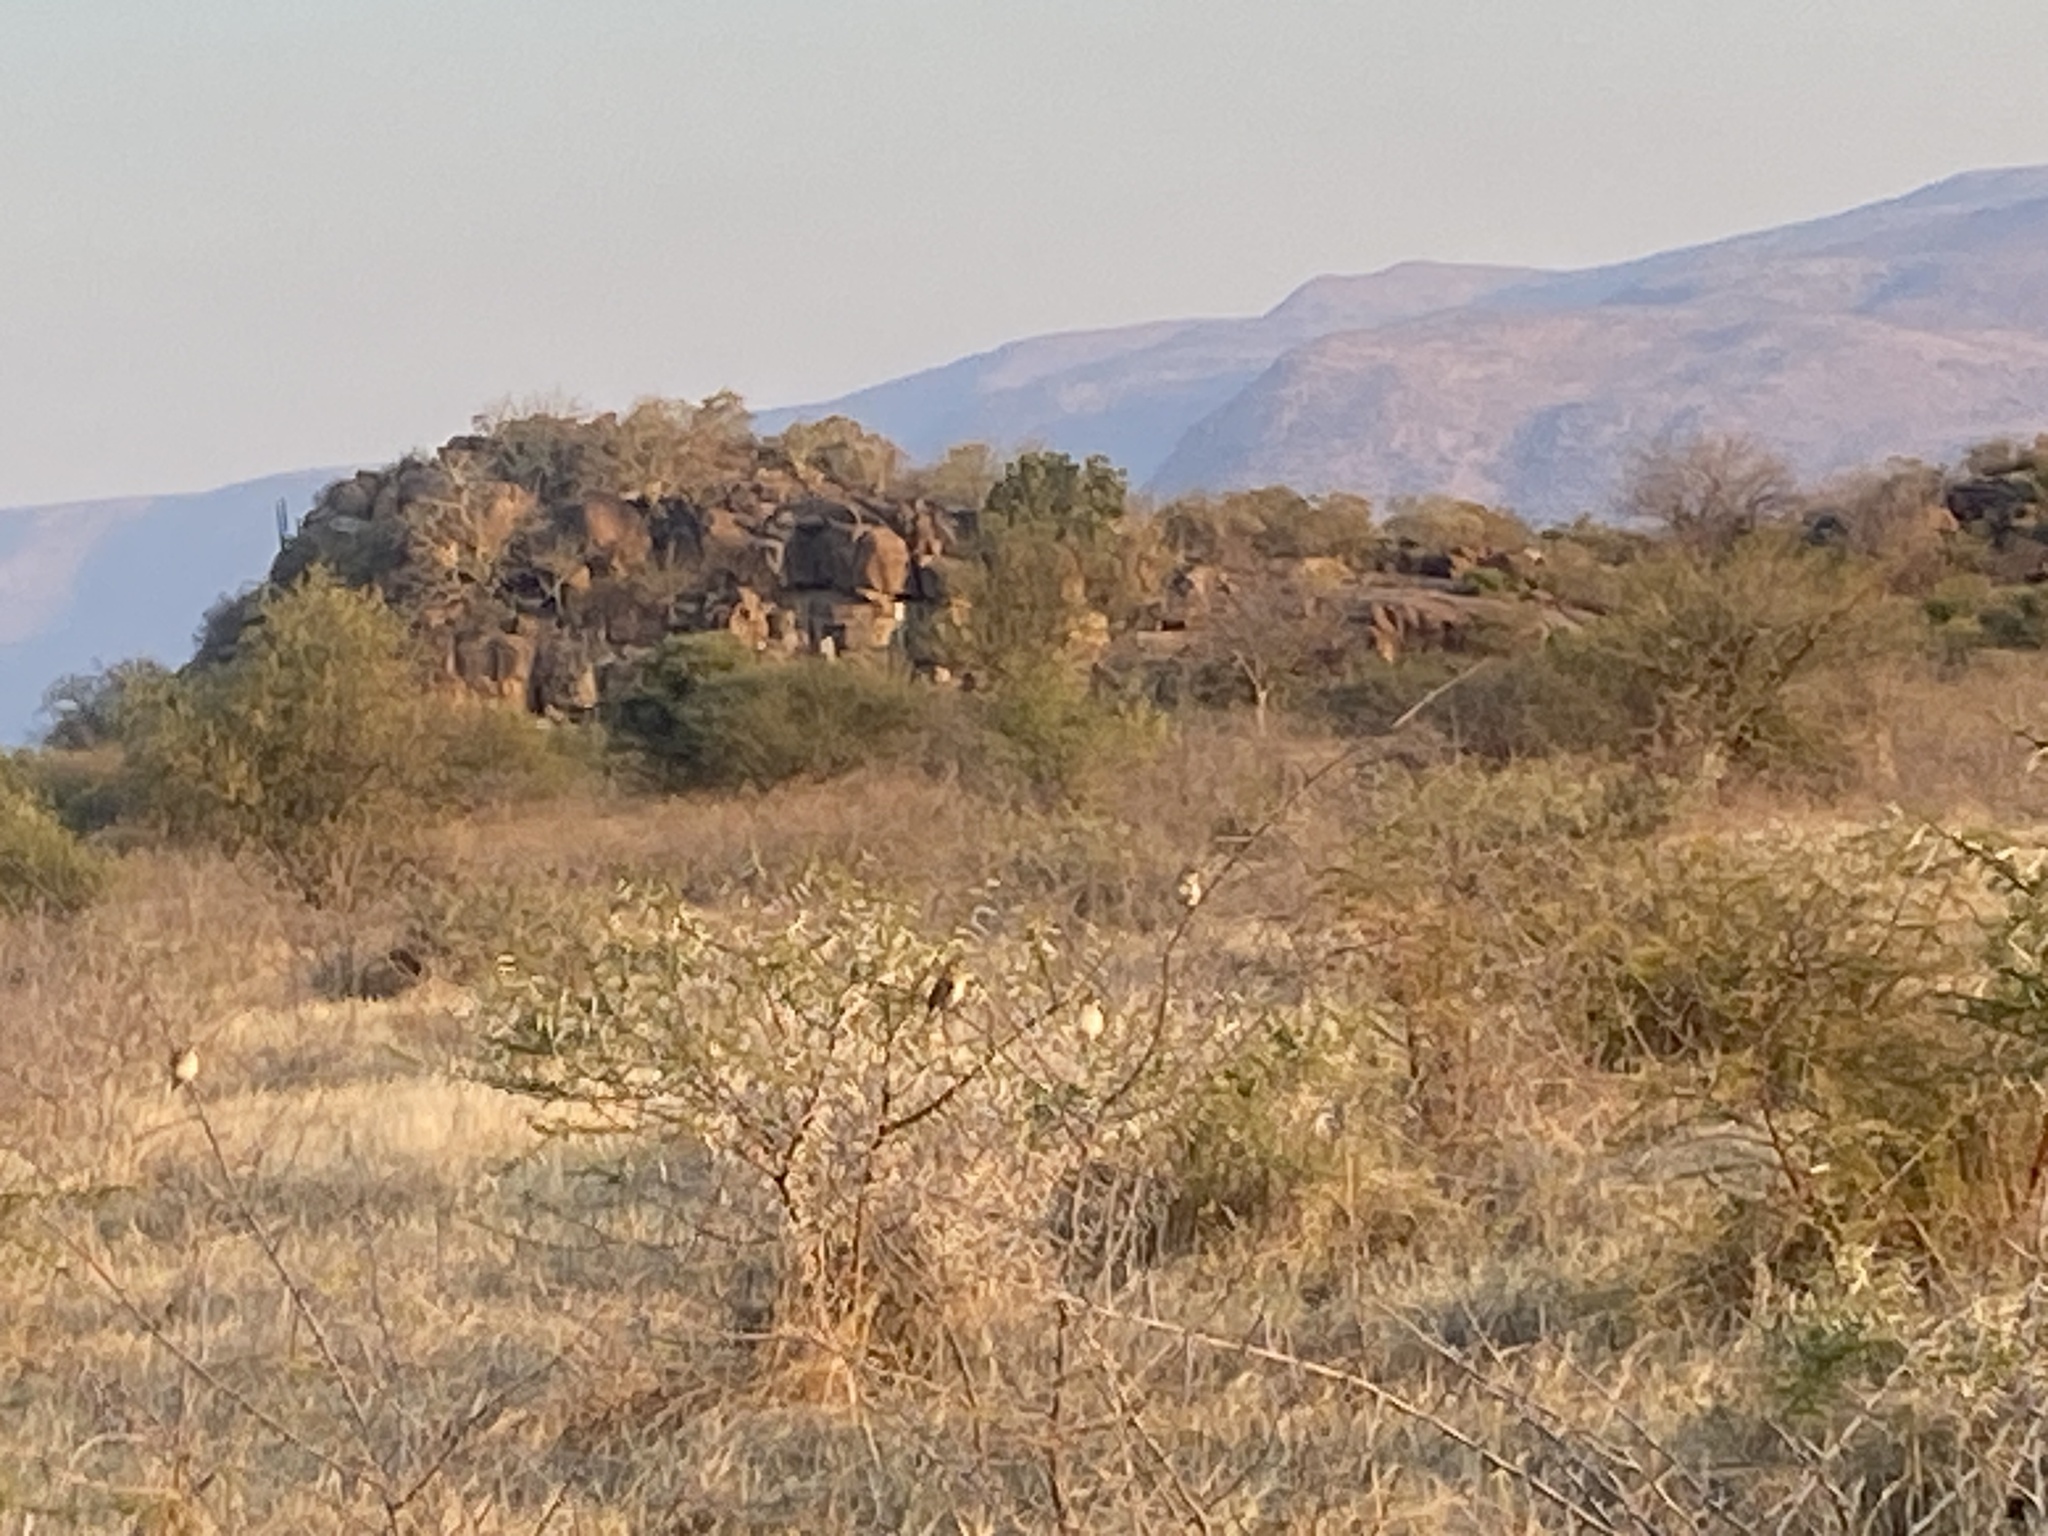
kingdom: Animalia
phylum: Chordata
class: Aves
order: Passeriformes
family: Ploceidae
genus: Quelea
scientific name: Quelea quelea
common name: Red-billed quelea
